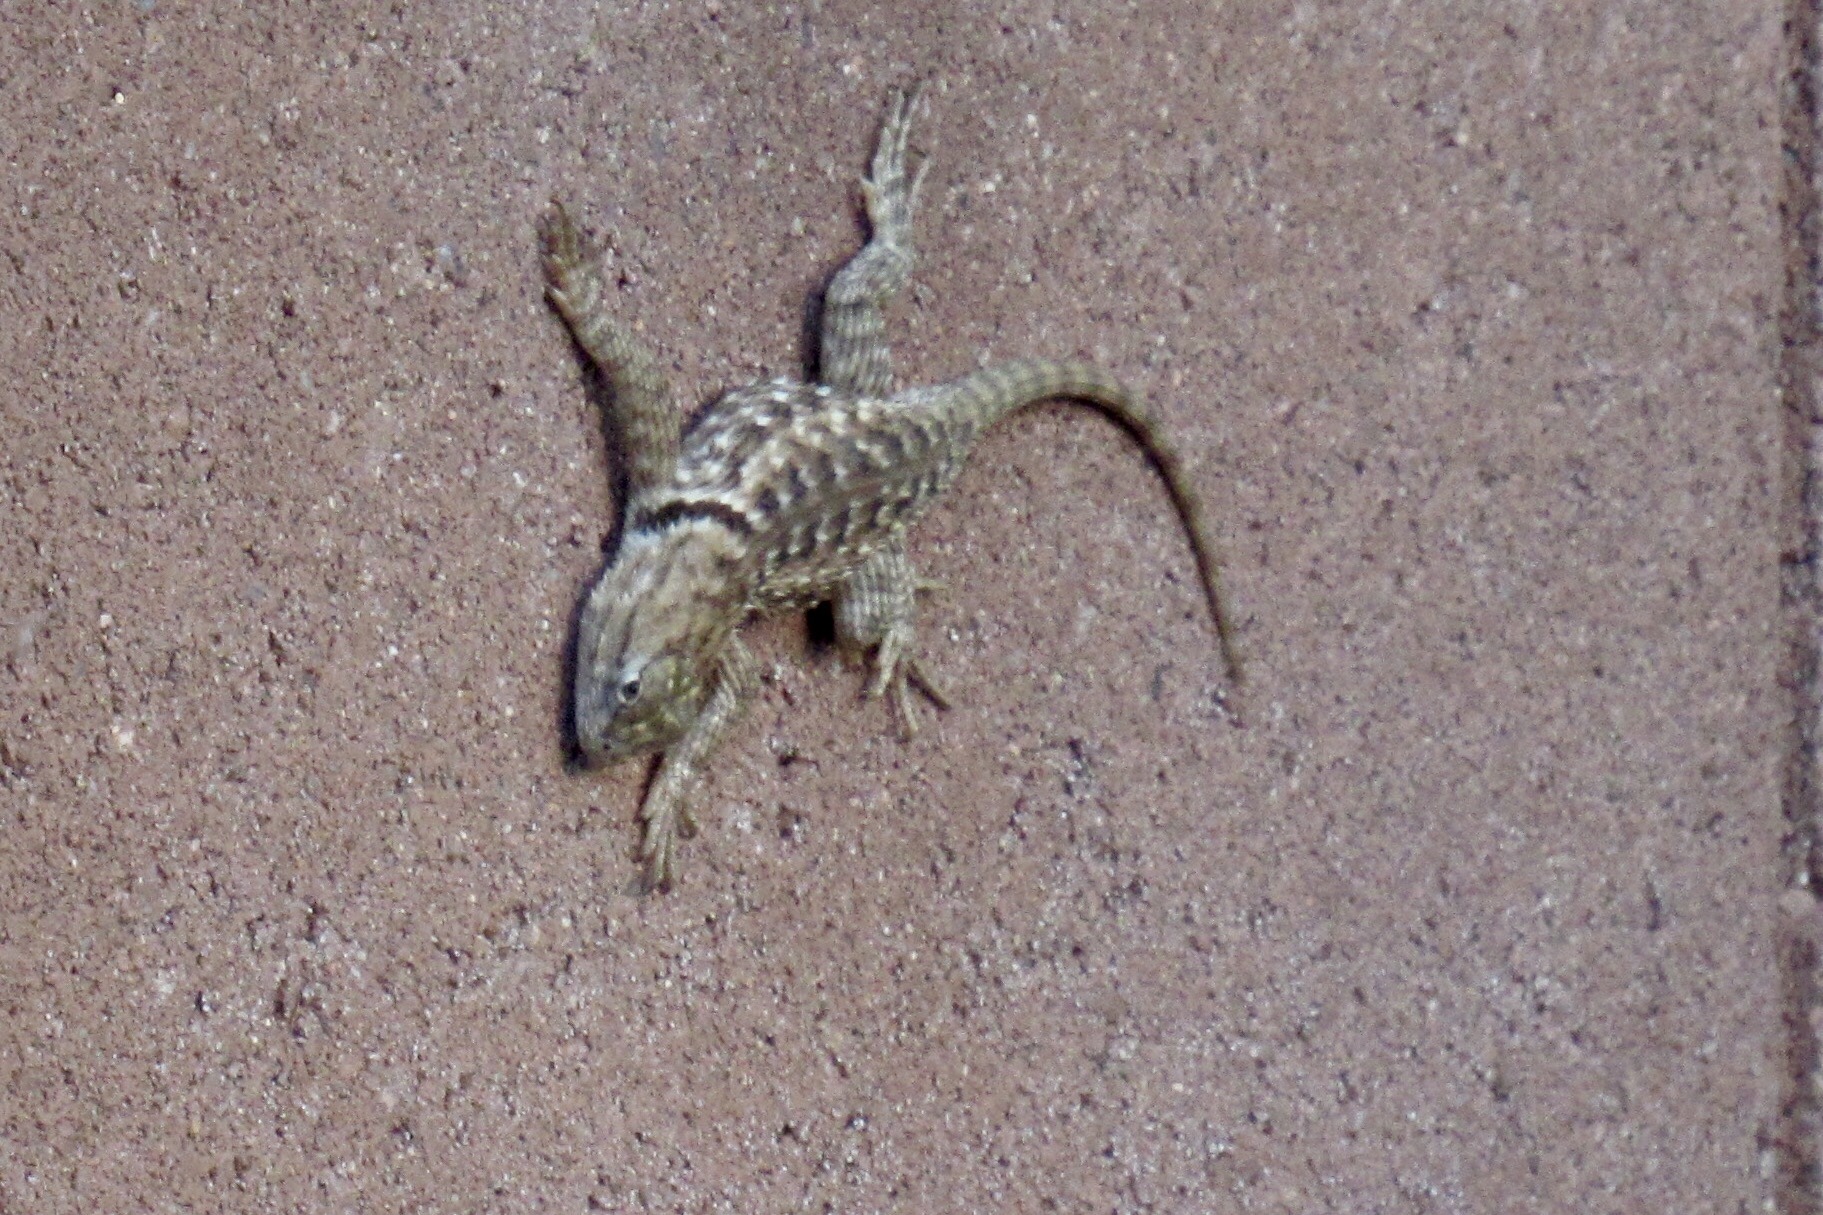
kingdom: Animalia
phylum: Chordata
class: Squamata
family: Phrynosomatidae
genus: Sceloporus
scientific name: Sceloporus magister
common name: Desert spiny lizard
